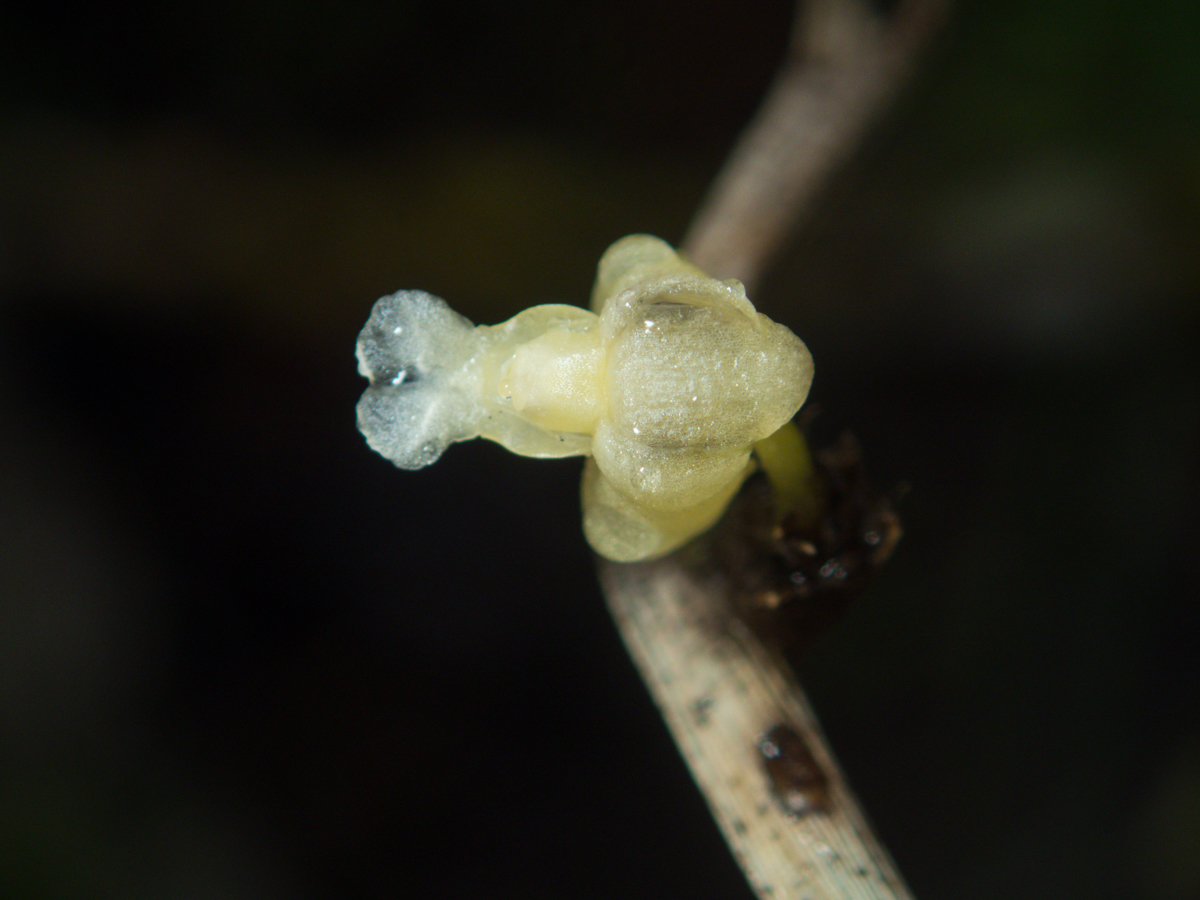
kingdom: Plantae
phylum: Tracheophyta
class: Liliopsida
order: Asparagales
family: Orchidaceae
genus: Dendrobium
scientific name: Dendrobium aloifolium
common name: Aloe-like dendrobium
